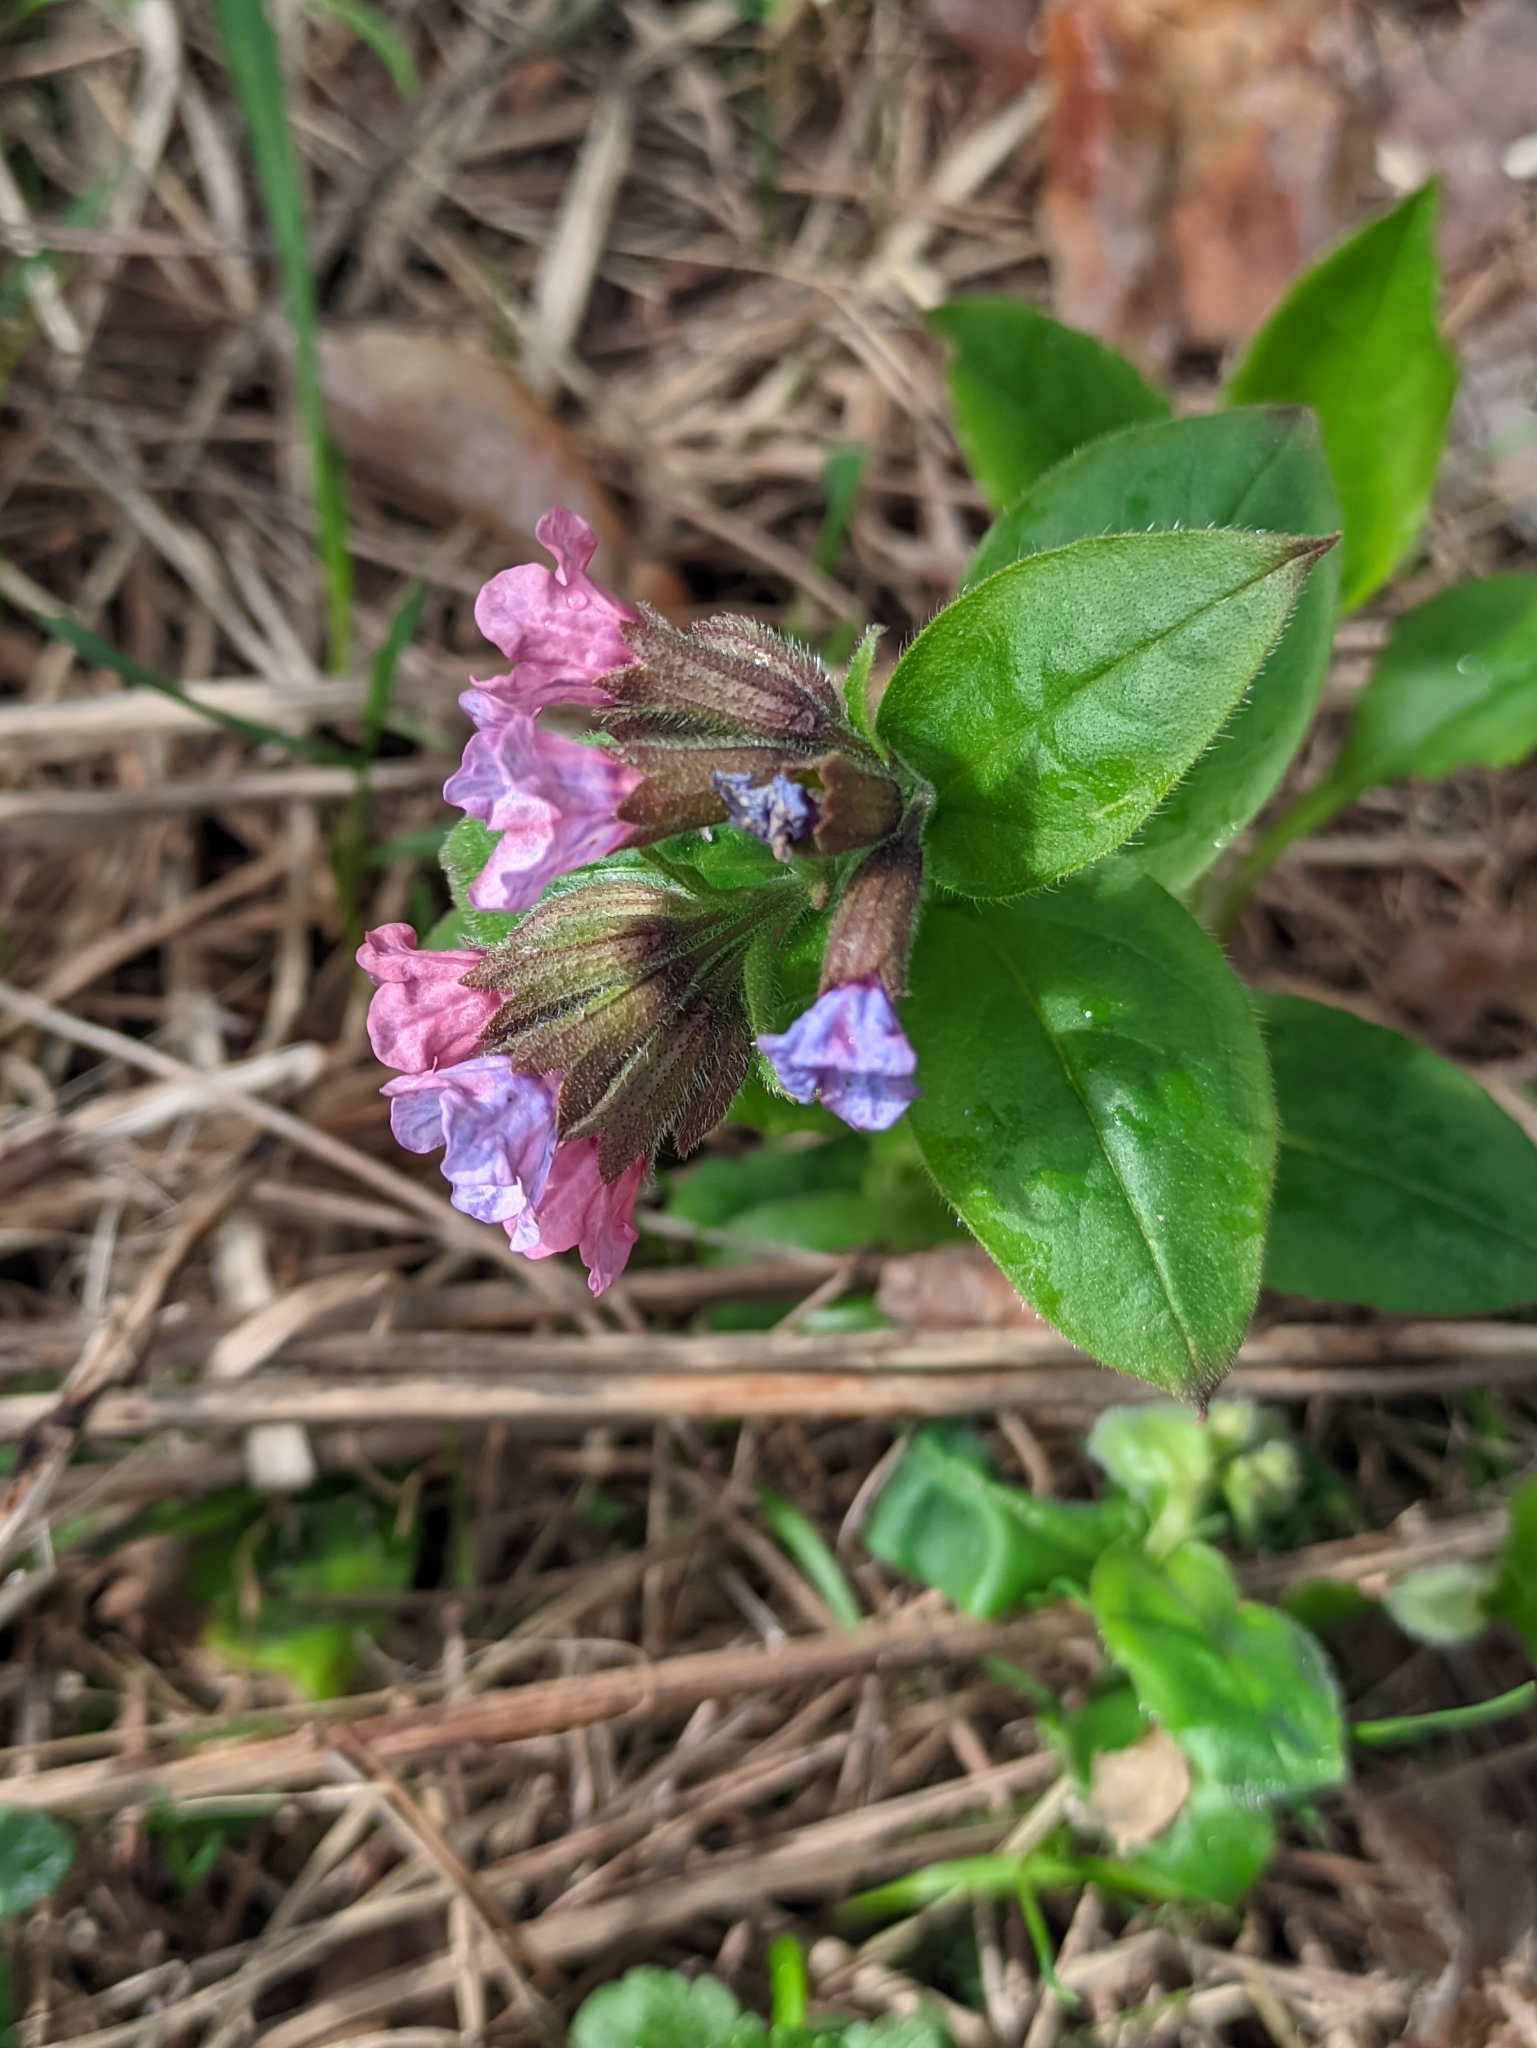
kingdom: Plantae
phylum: Tracheophyta
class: Magnoliopsida
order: Boraginales
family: Boraginaceae
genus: Pulmonaria
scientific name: Pulmonaria obscura
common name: Suffolk lungwort
